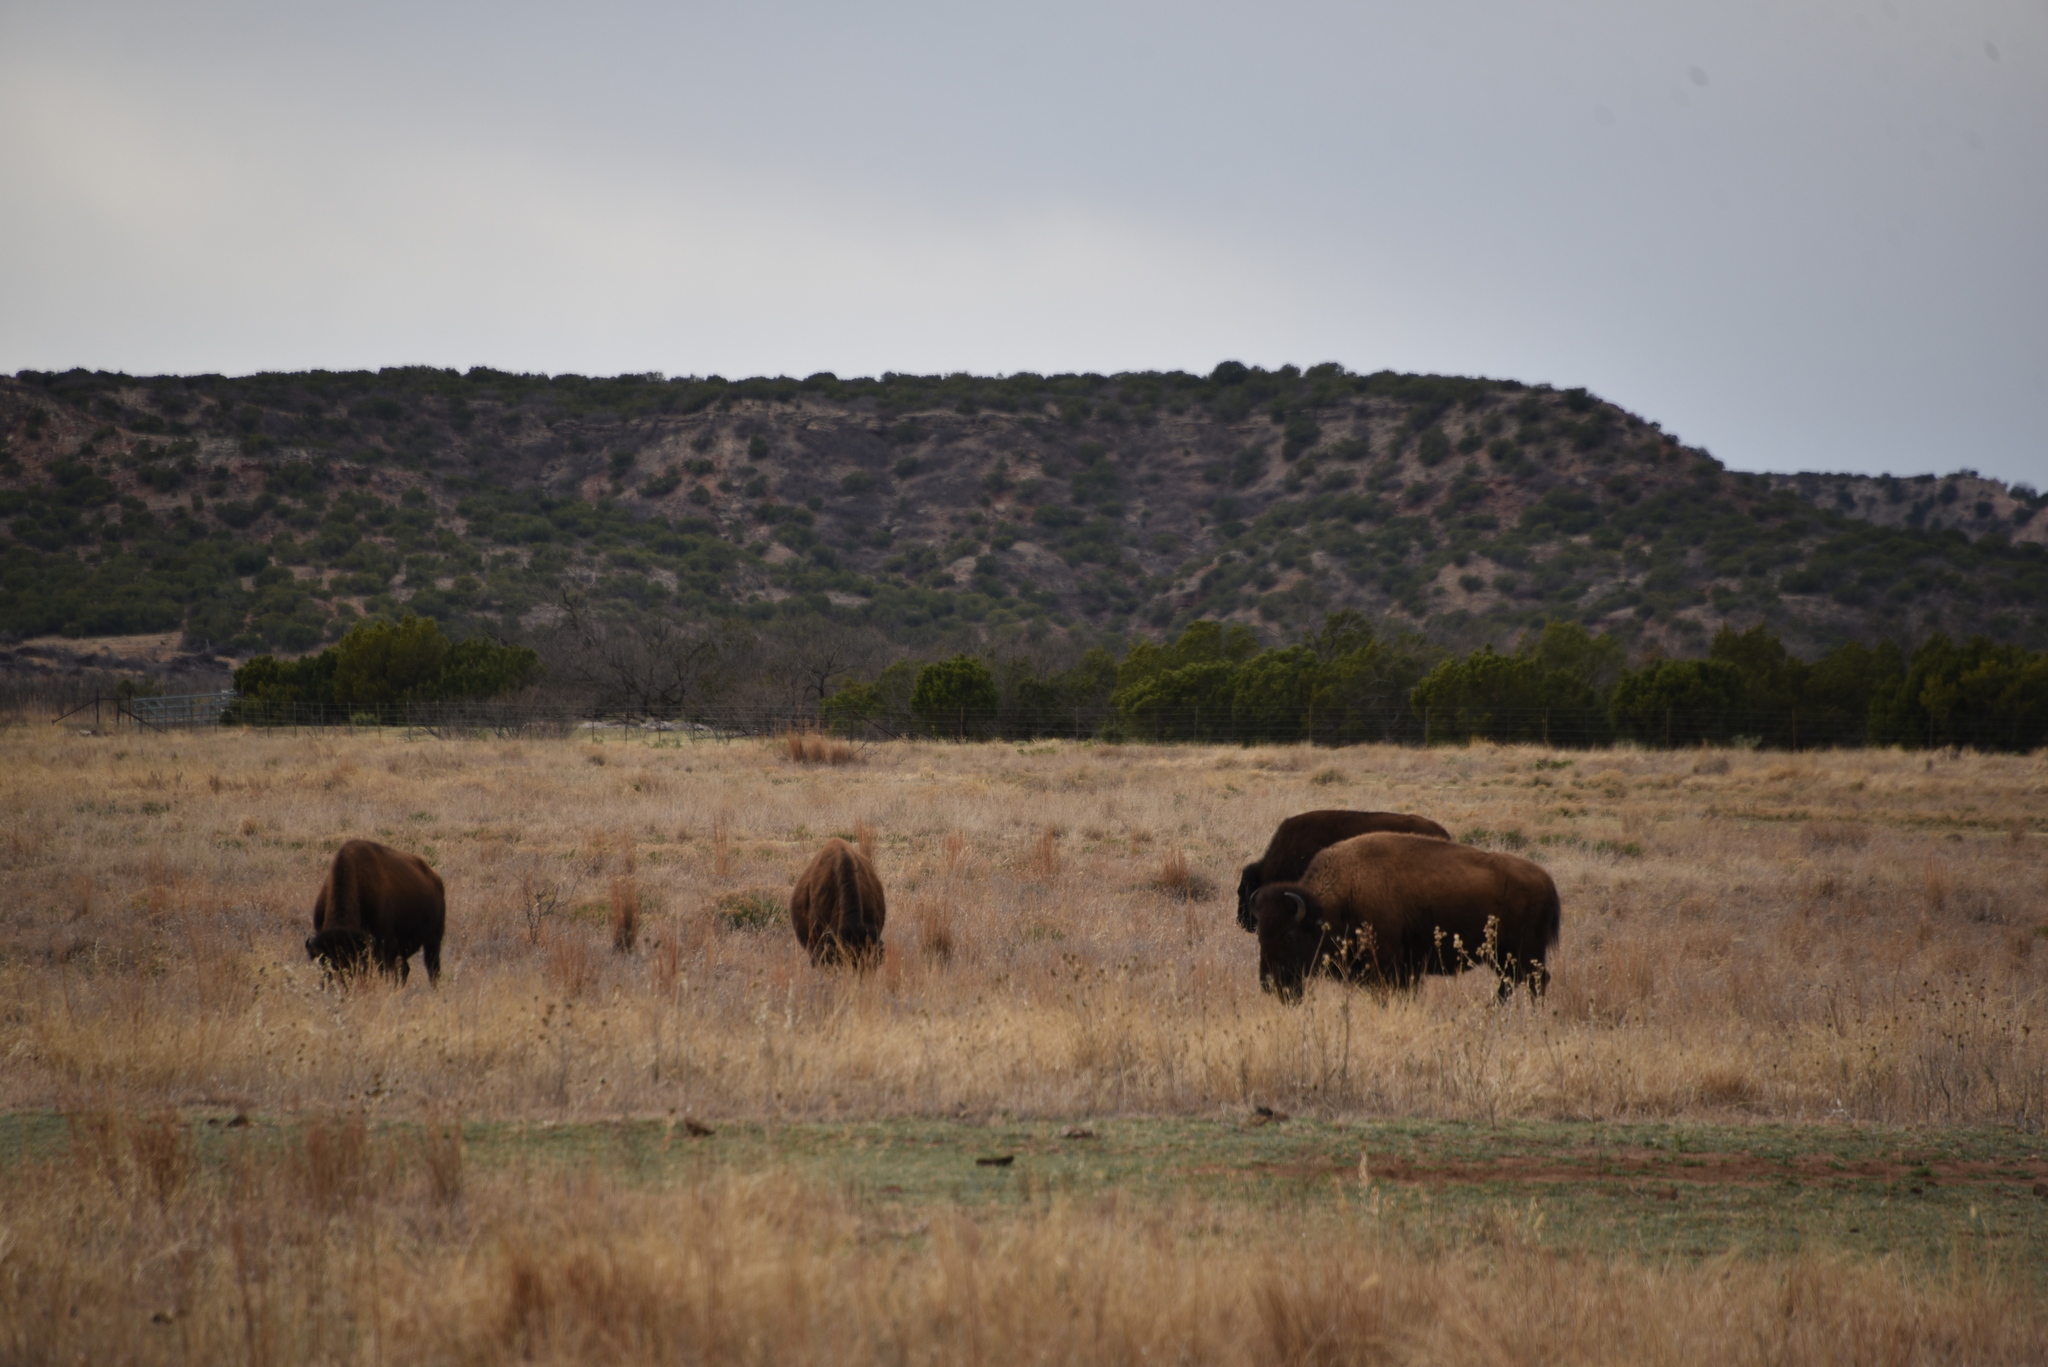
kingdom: Animalia
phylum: Chordata
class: Mammalia
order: Artiodactyla
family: Bovidae
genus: Bison
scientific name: Bison bison
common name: American bison
